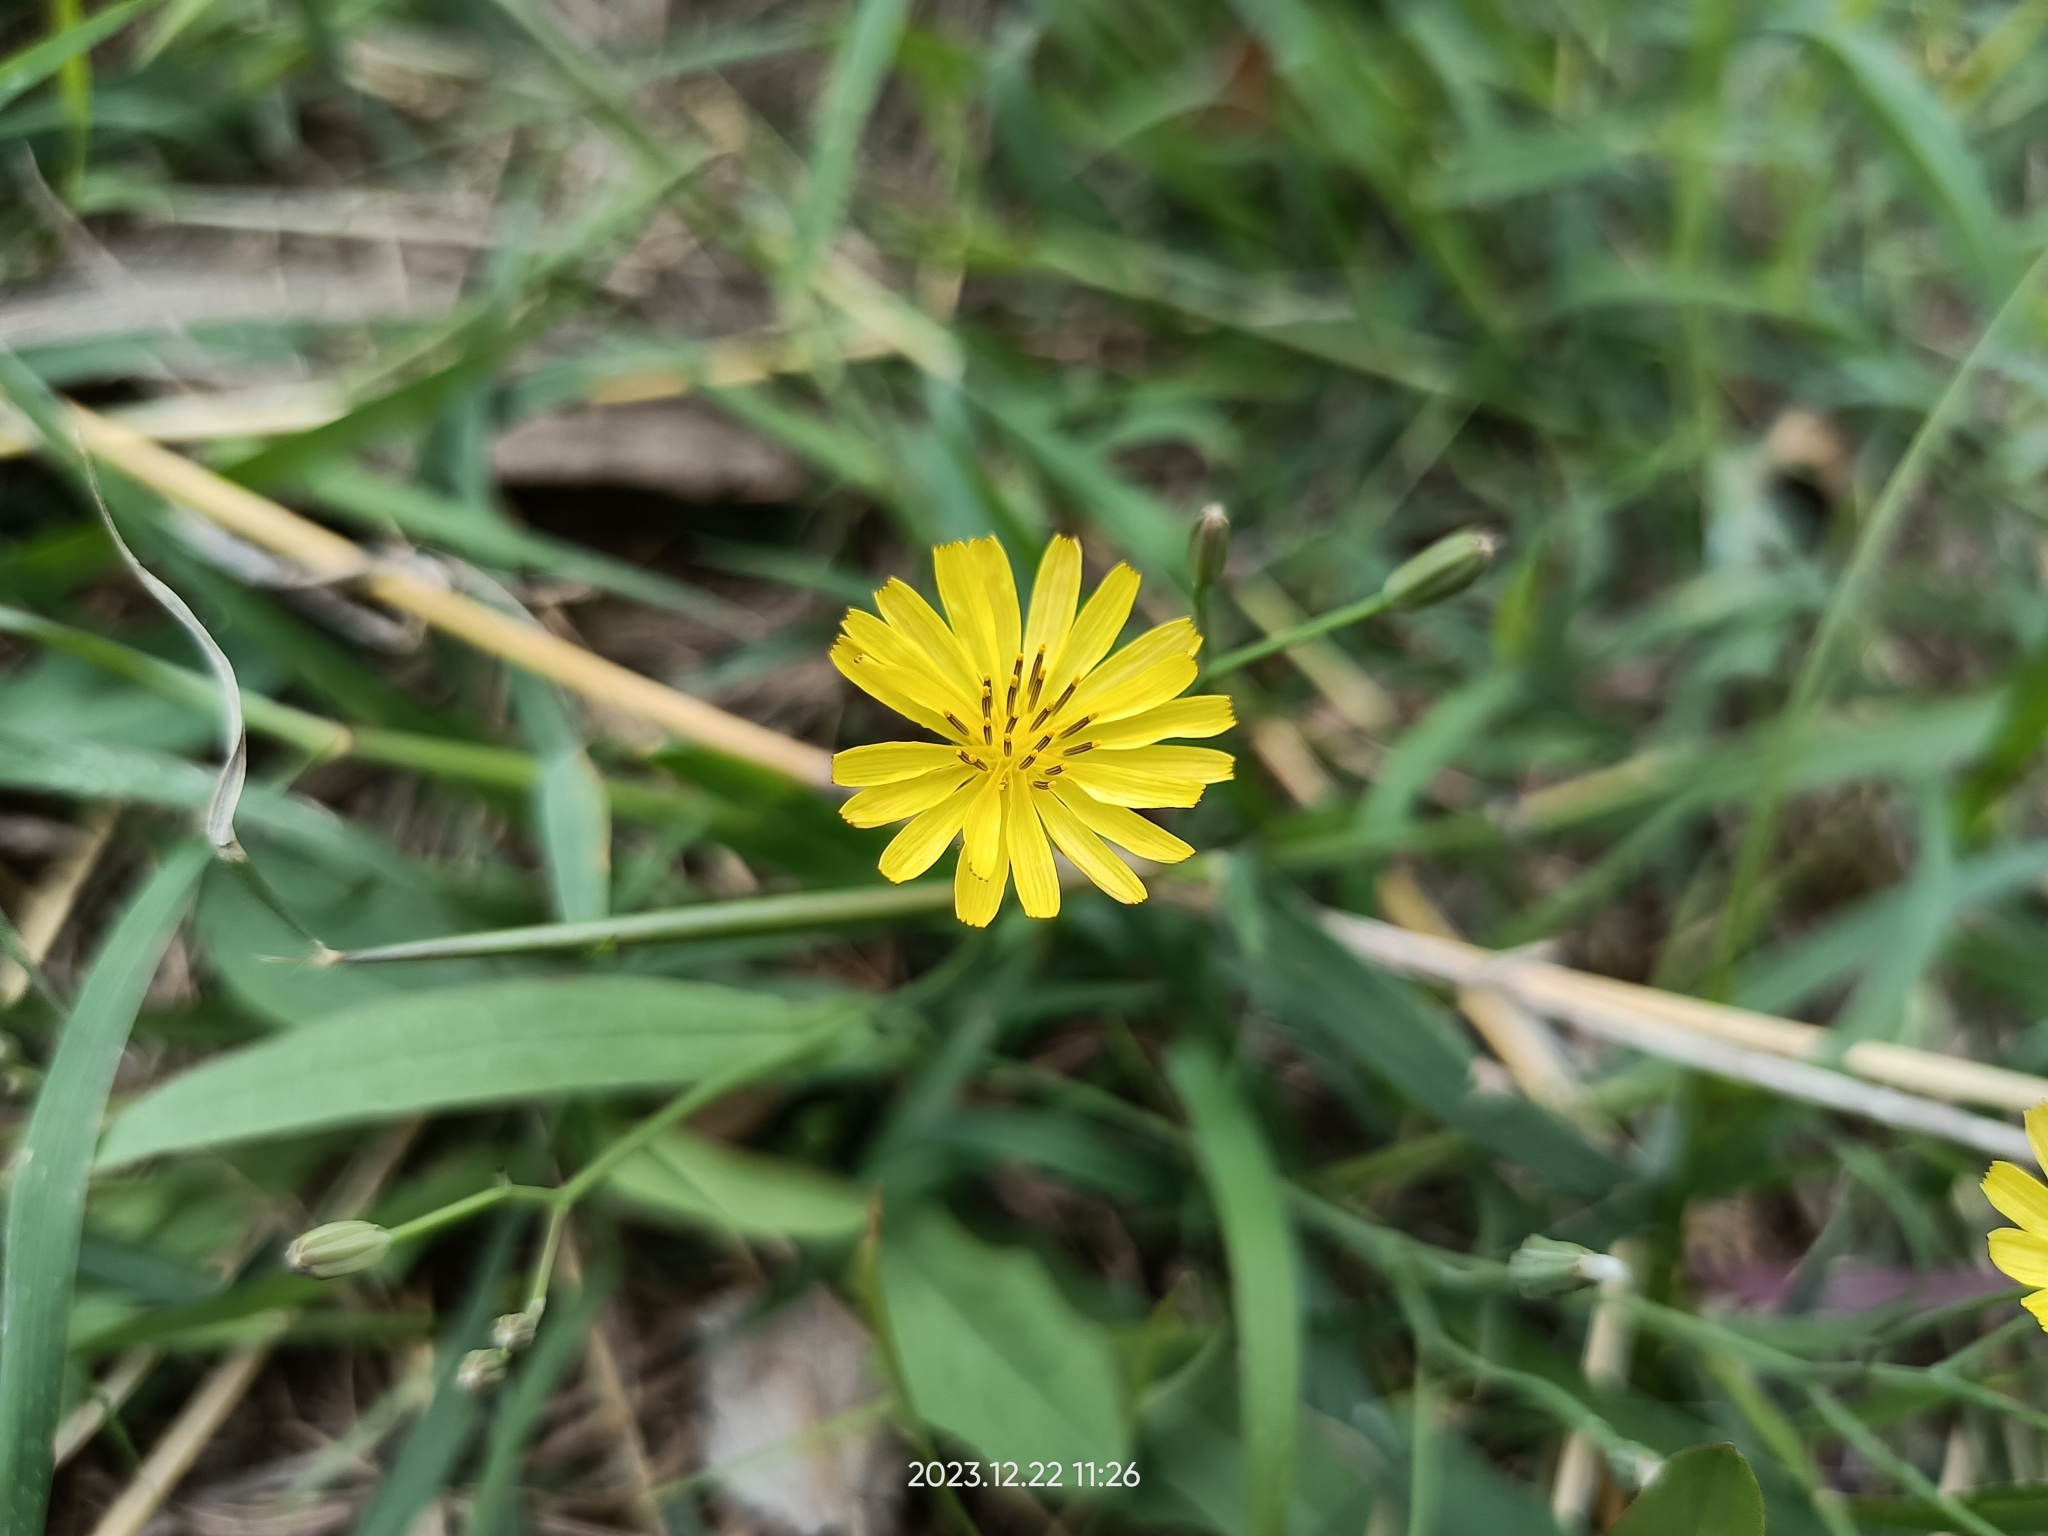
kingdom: Plantae
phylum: Tracheophyta
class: Magnoliopsida
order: Asterales
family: Asteraceae
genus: Ixeris
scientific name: Ixeris chinensis
